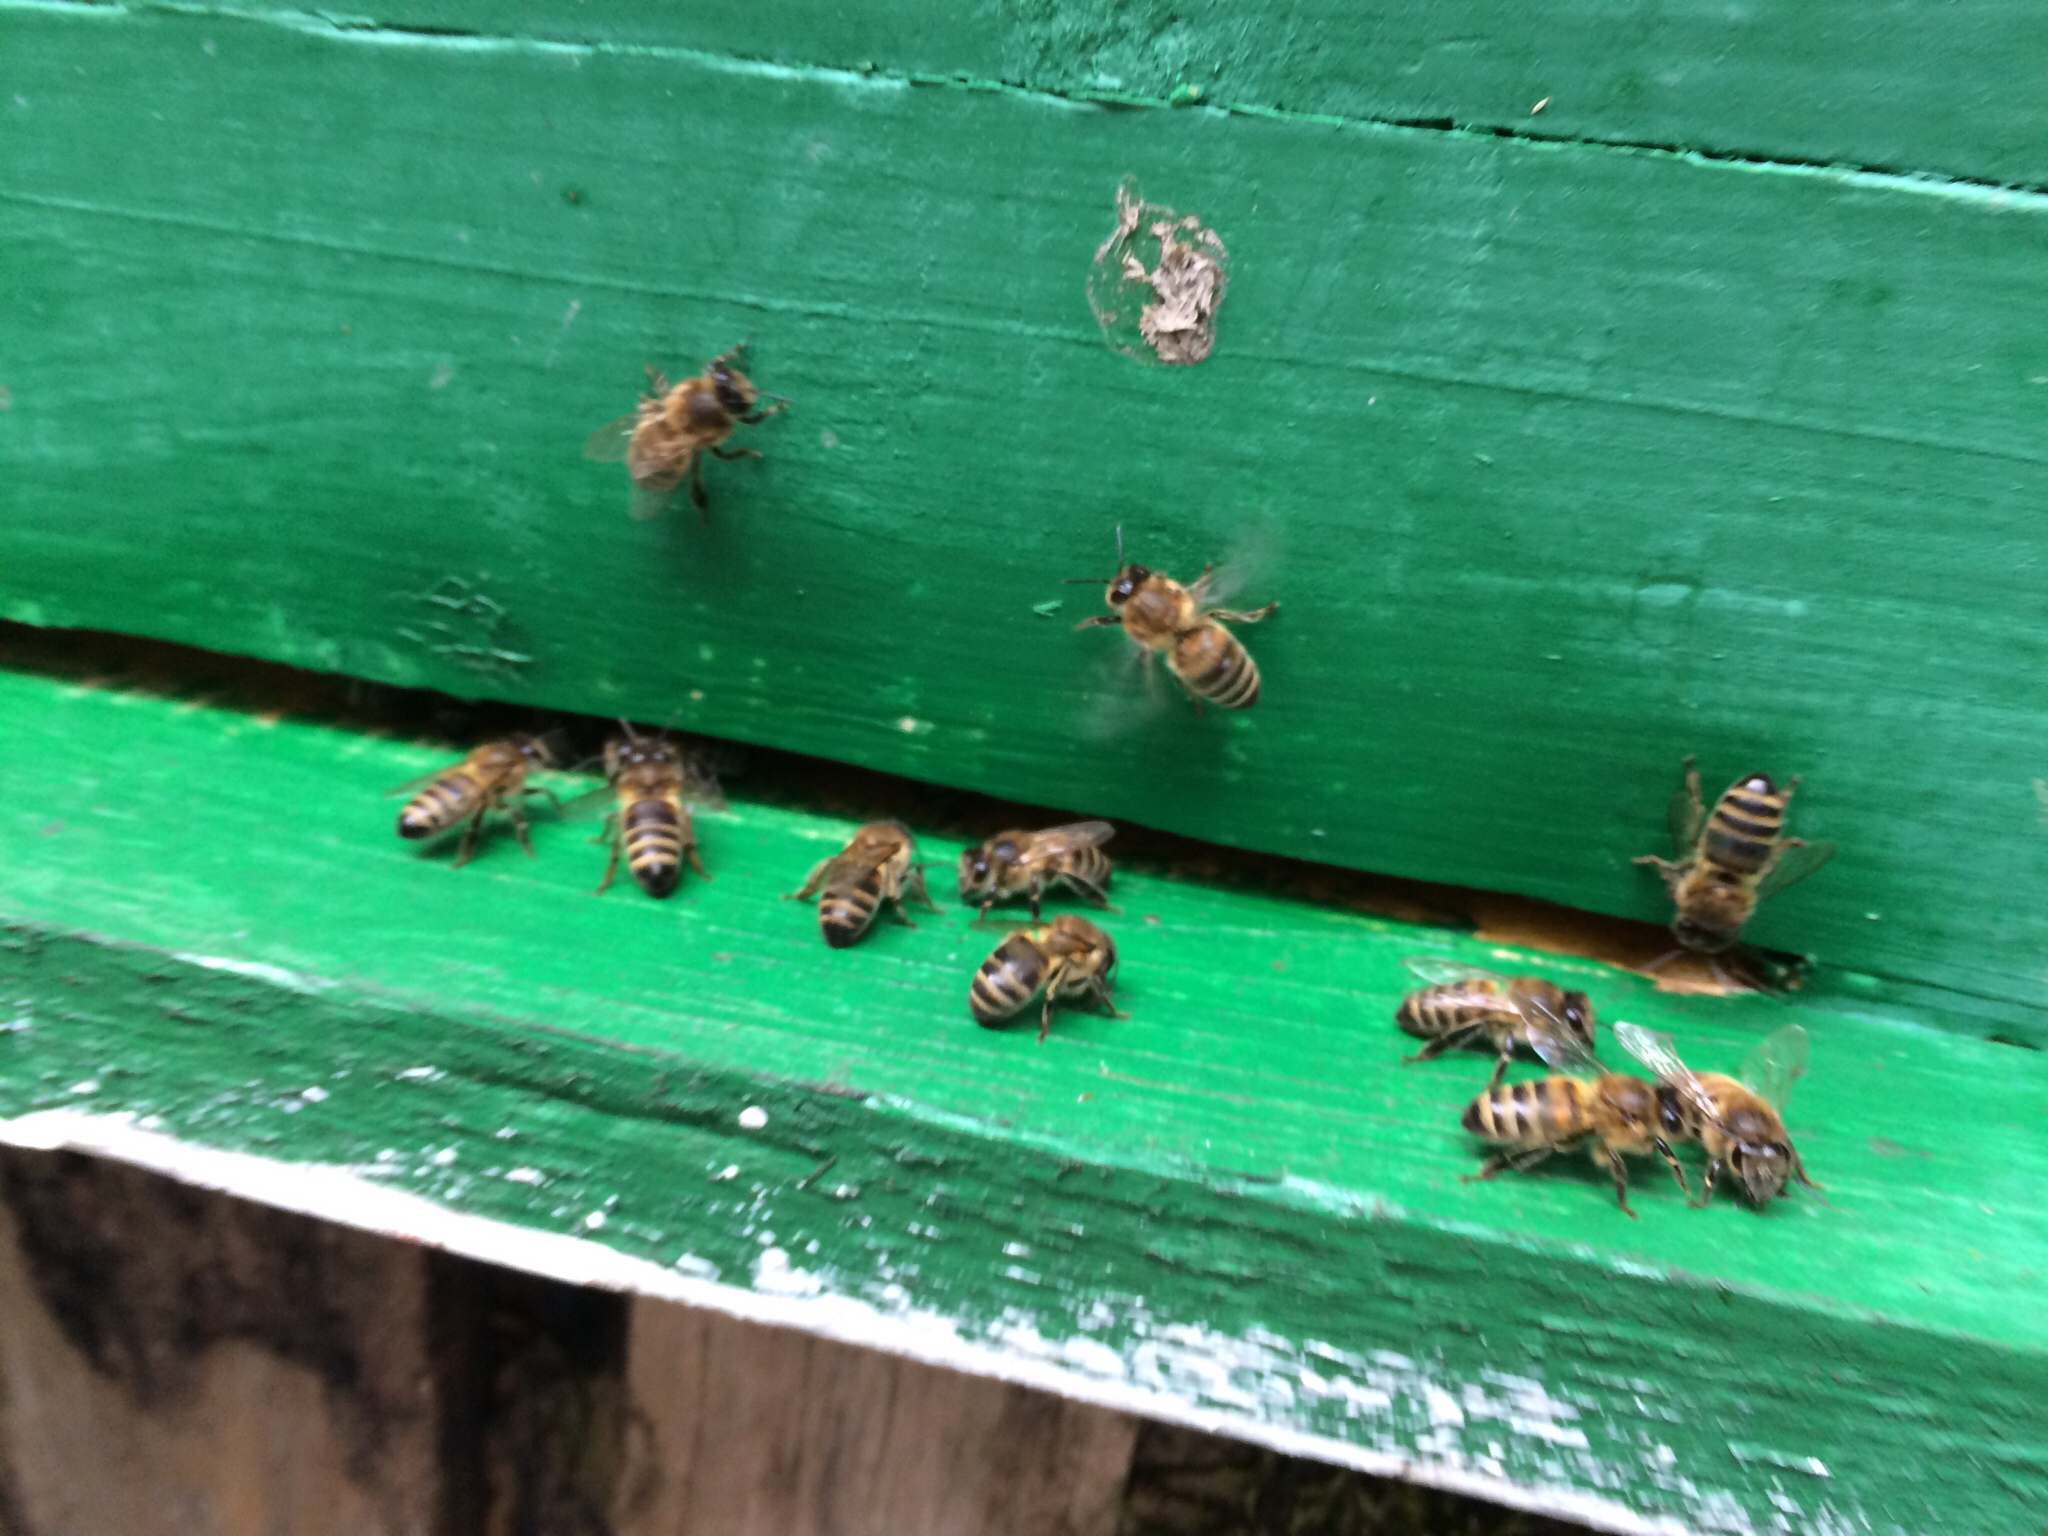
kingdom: Animalia
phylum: Arthropoda
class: Insecta
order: Hymenoptera
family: Apidae
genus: Apis
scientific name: Apis mellifera
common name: Honey bee
